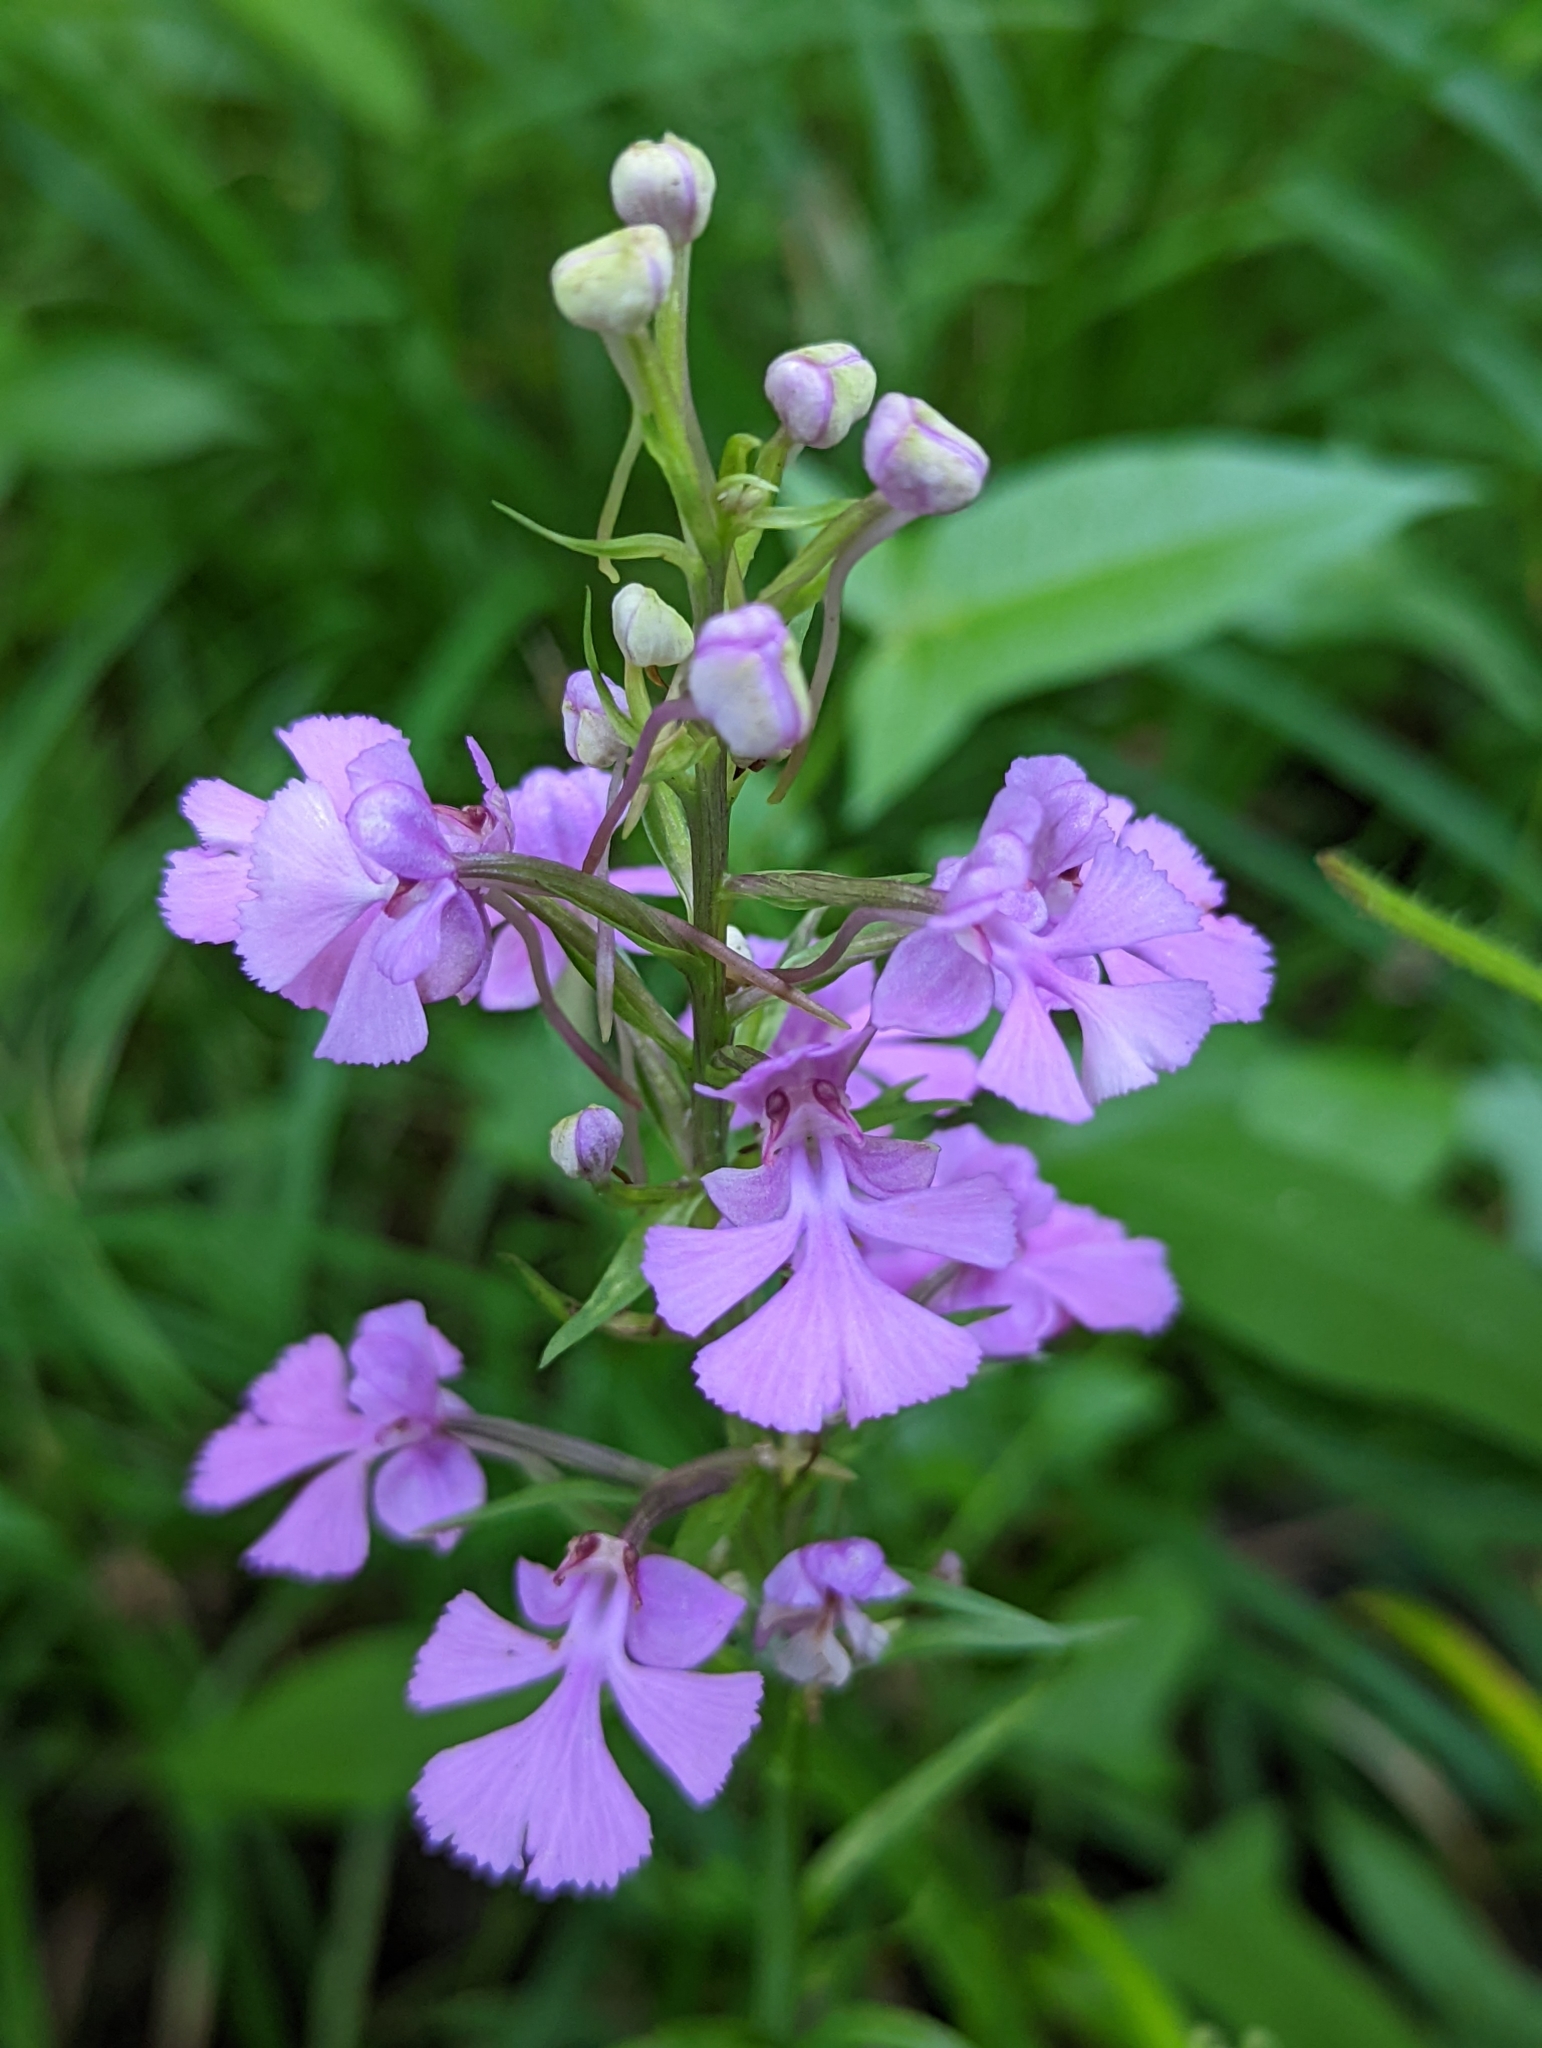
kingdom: Plantae
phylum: Tracheophyta
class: Liliopsida
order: Asparagales
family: Orchidaceae
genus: Platanthera
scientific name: Platanthera peramoena
